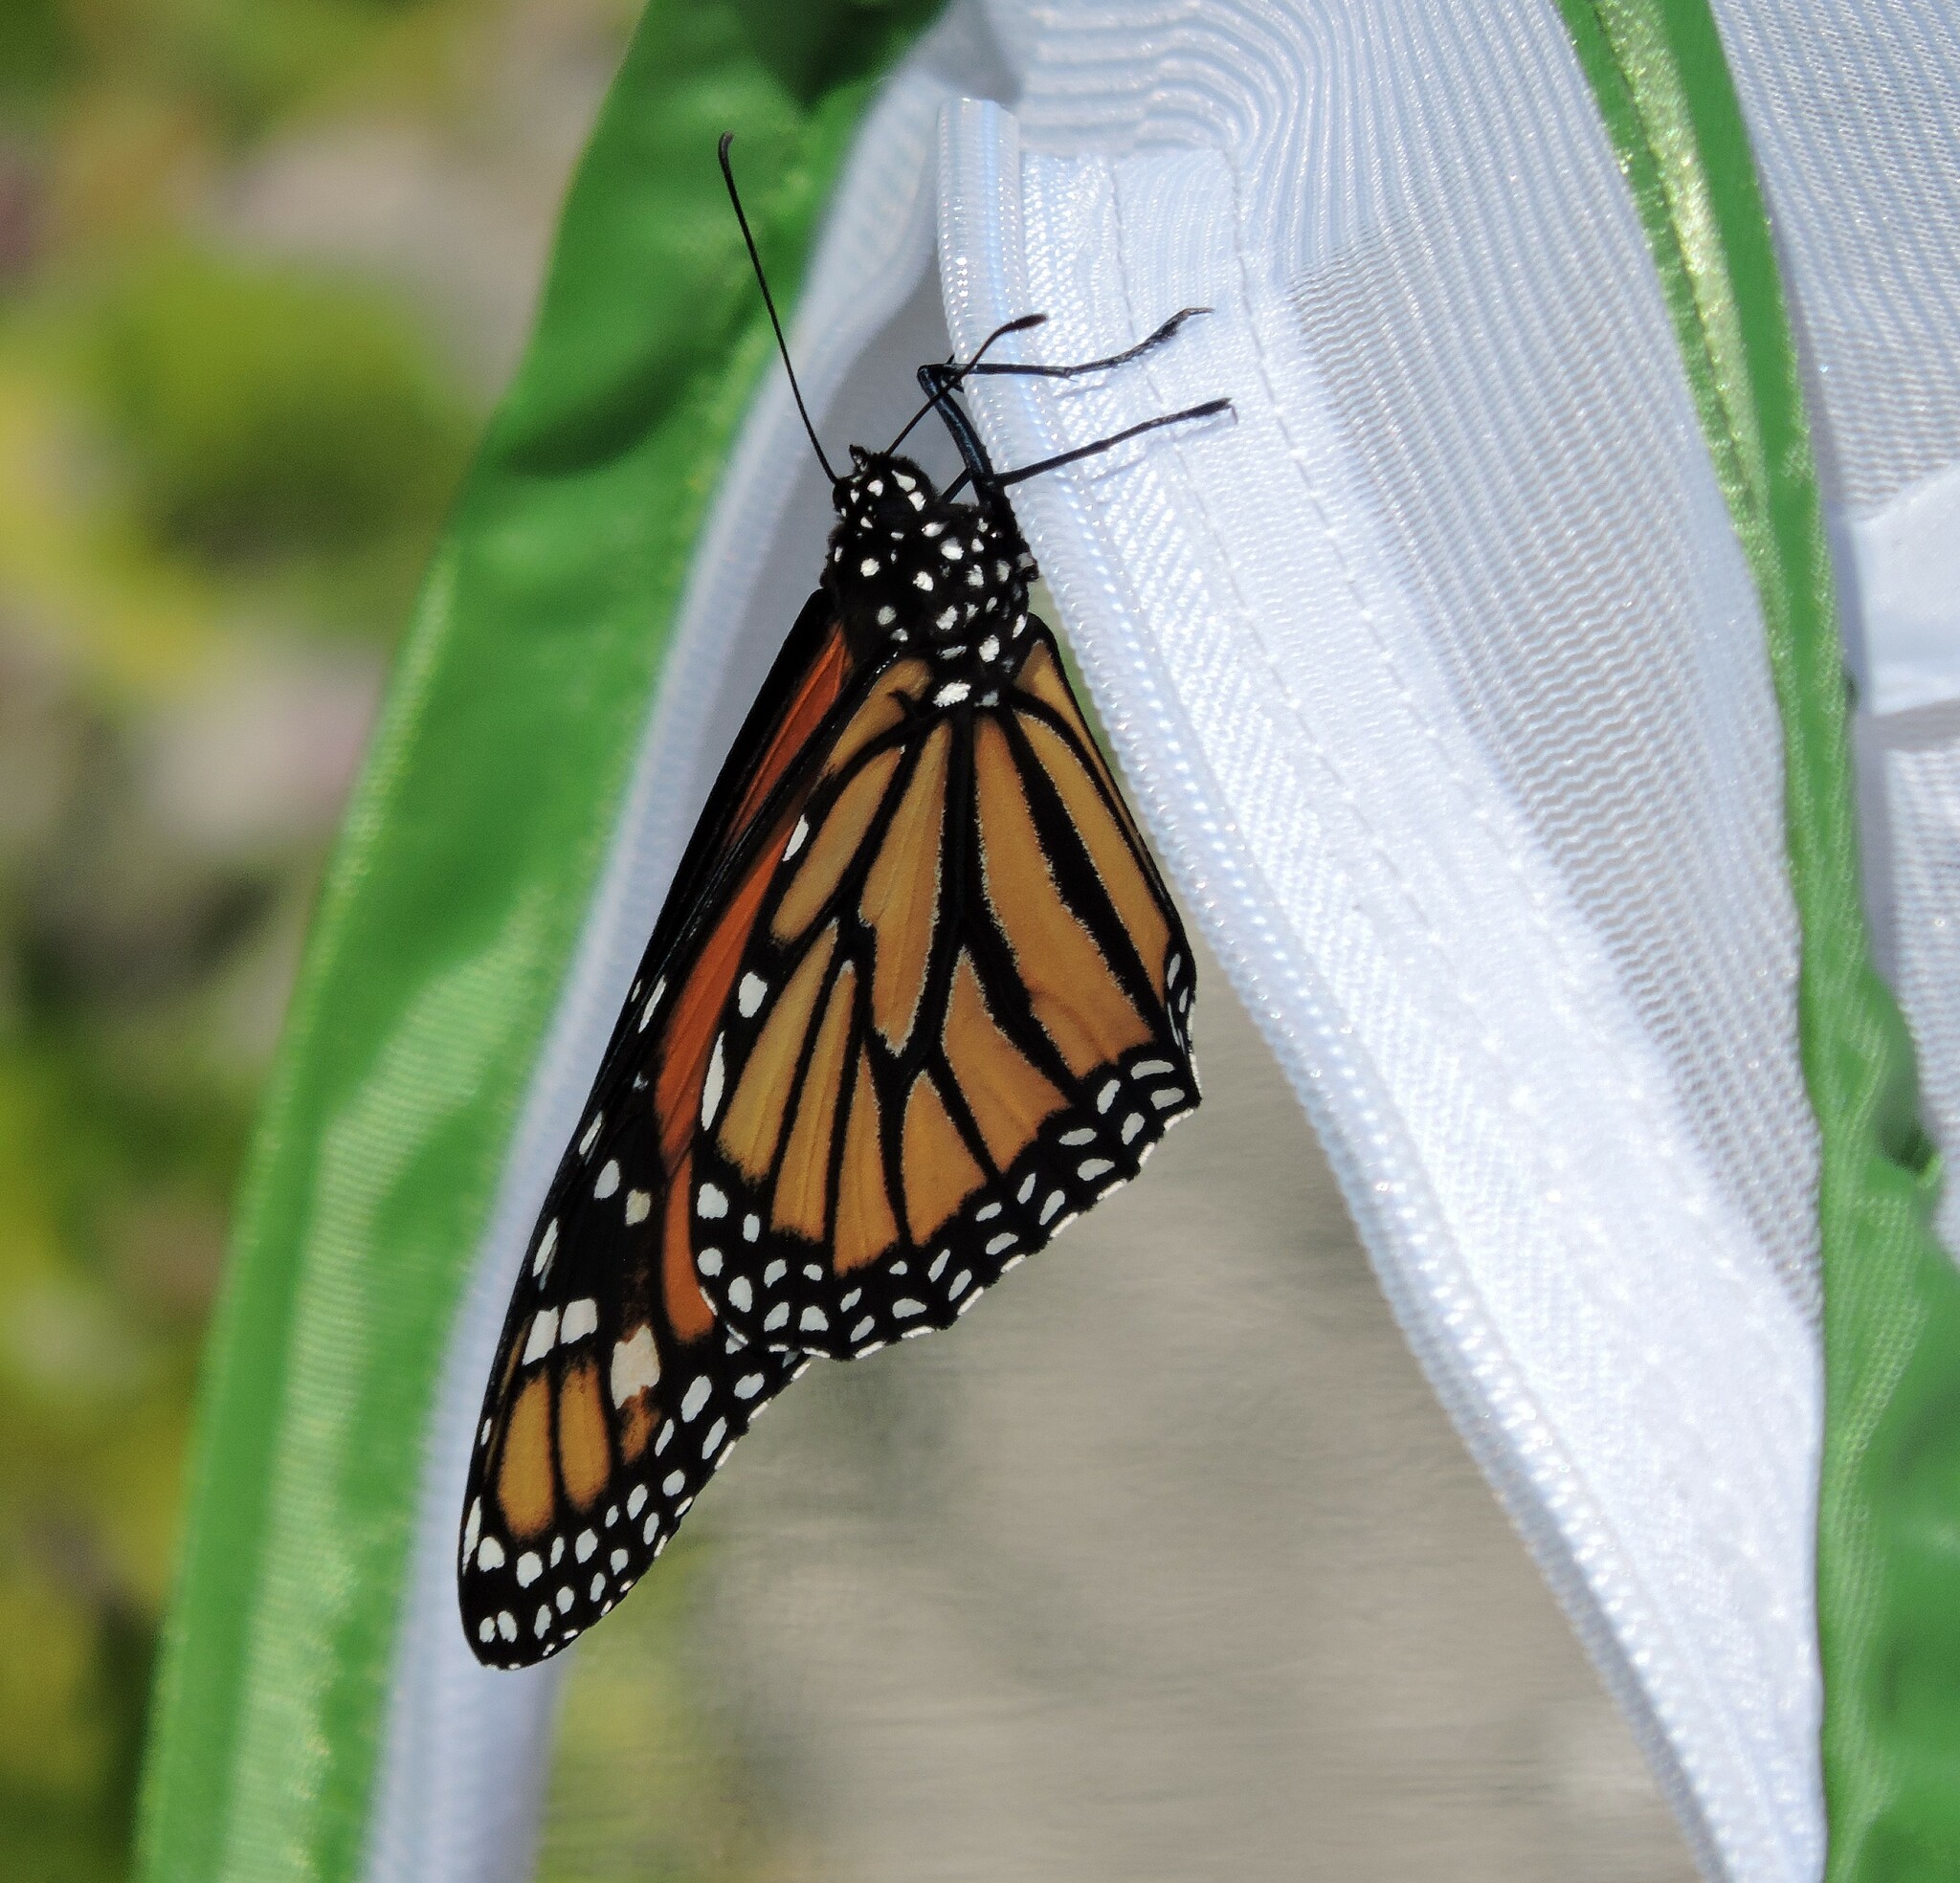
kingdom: Animalia
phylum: Arthropoda
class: Insecta
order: Lepidoptera
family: Nymphalidae
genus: Danaus
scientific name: Danaus plexippus
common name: Monarch
